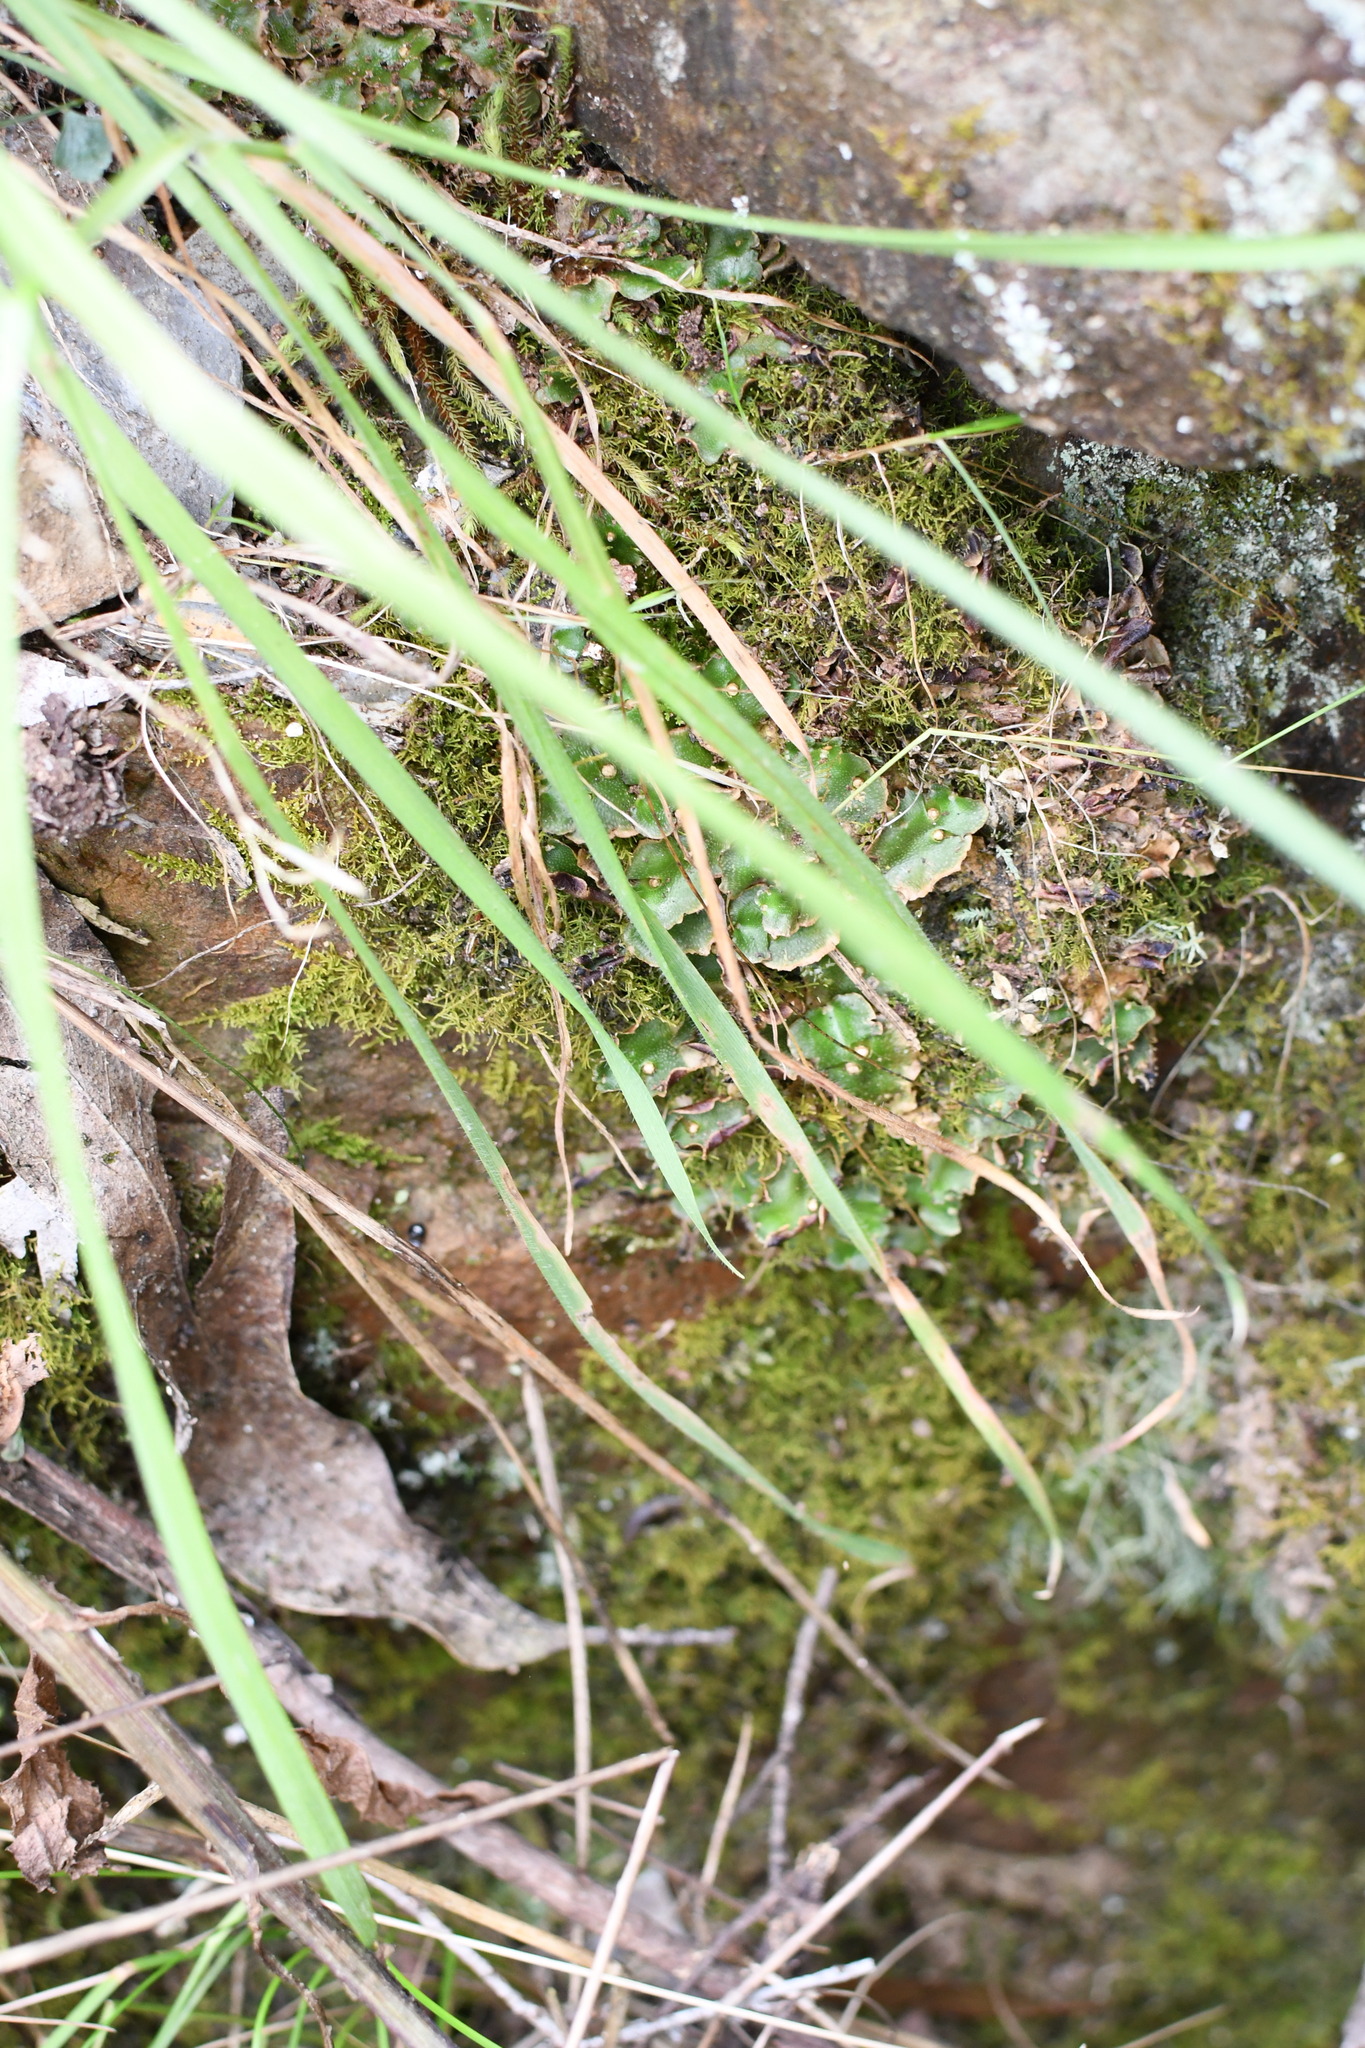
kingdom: Plantae
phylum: Marchantiophyta
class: Marchantiopsida
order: Lunulariales
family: Lunulariaceae
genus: Lunularia
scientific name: Lunularia cruciata
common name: Crescent-cup liverwort
